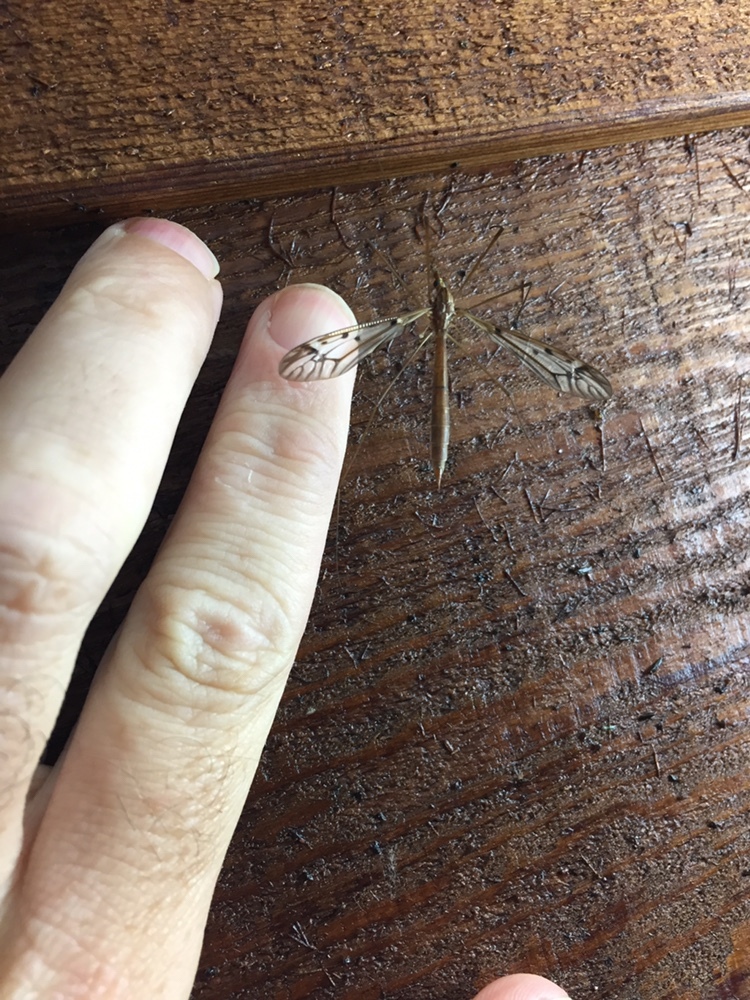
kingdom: Animalia
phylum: Arthropoda
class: Insecta
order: Diptera
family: Tipulidae
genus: Zelandotipula
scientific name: Zelandotipula novarae
